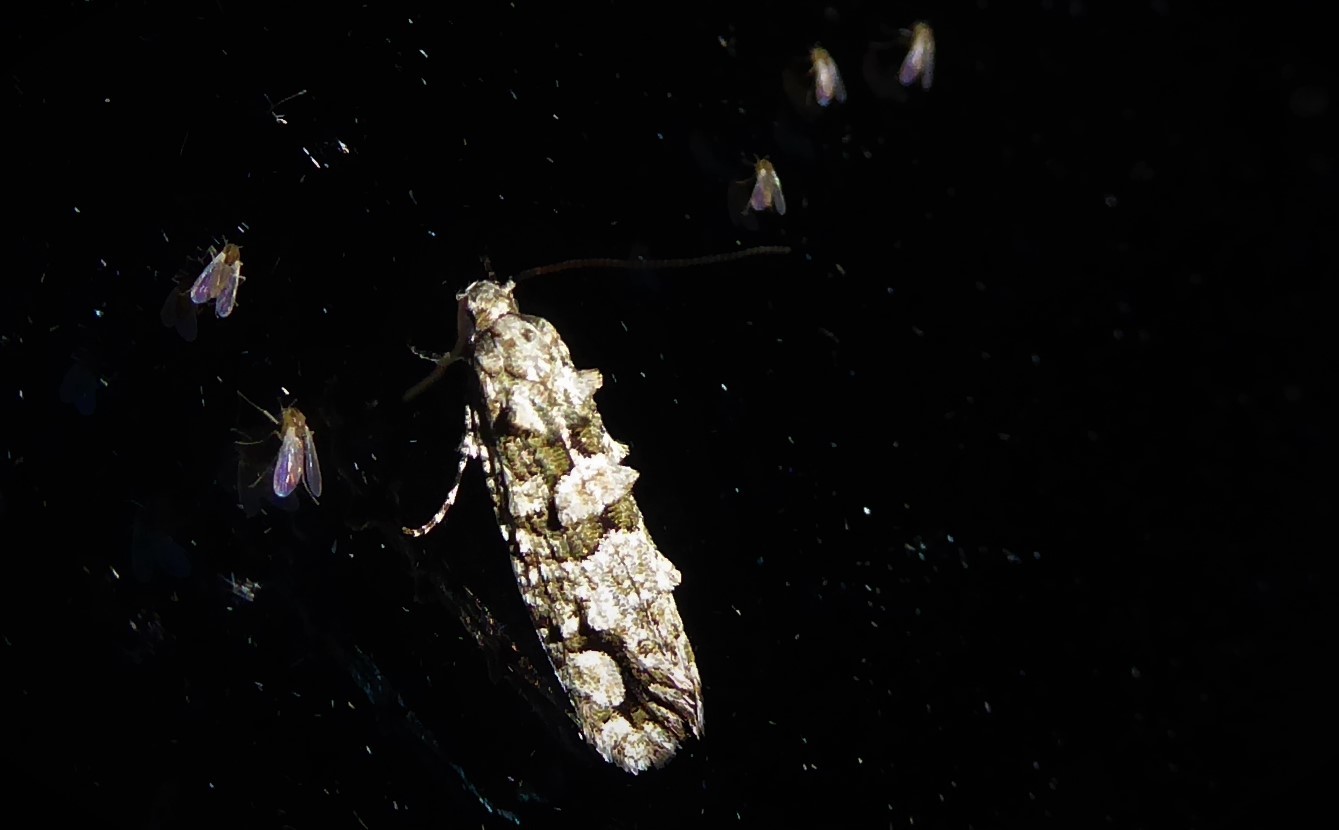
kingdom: Animalia
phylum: Arthropoda
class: Insecta
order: Lepidoptera
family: Tineidae
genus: Lysiphragma
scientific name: Lysiphragma howesii
